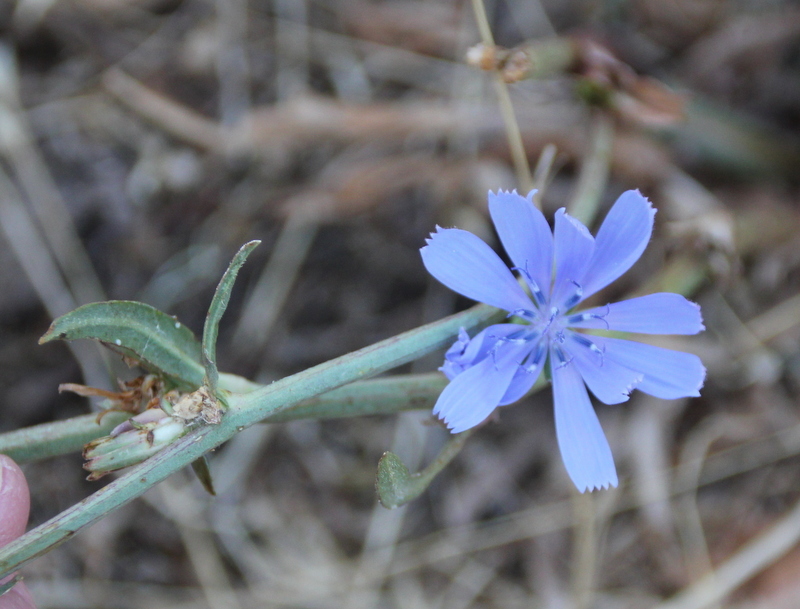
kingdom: Plantae
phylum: Tracheophyta
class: Magnoliopsida
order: Asterales
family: Asteraceae
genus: Cichorium
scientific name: Cichorium intybus
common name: Chicory
